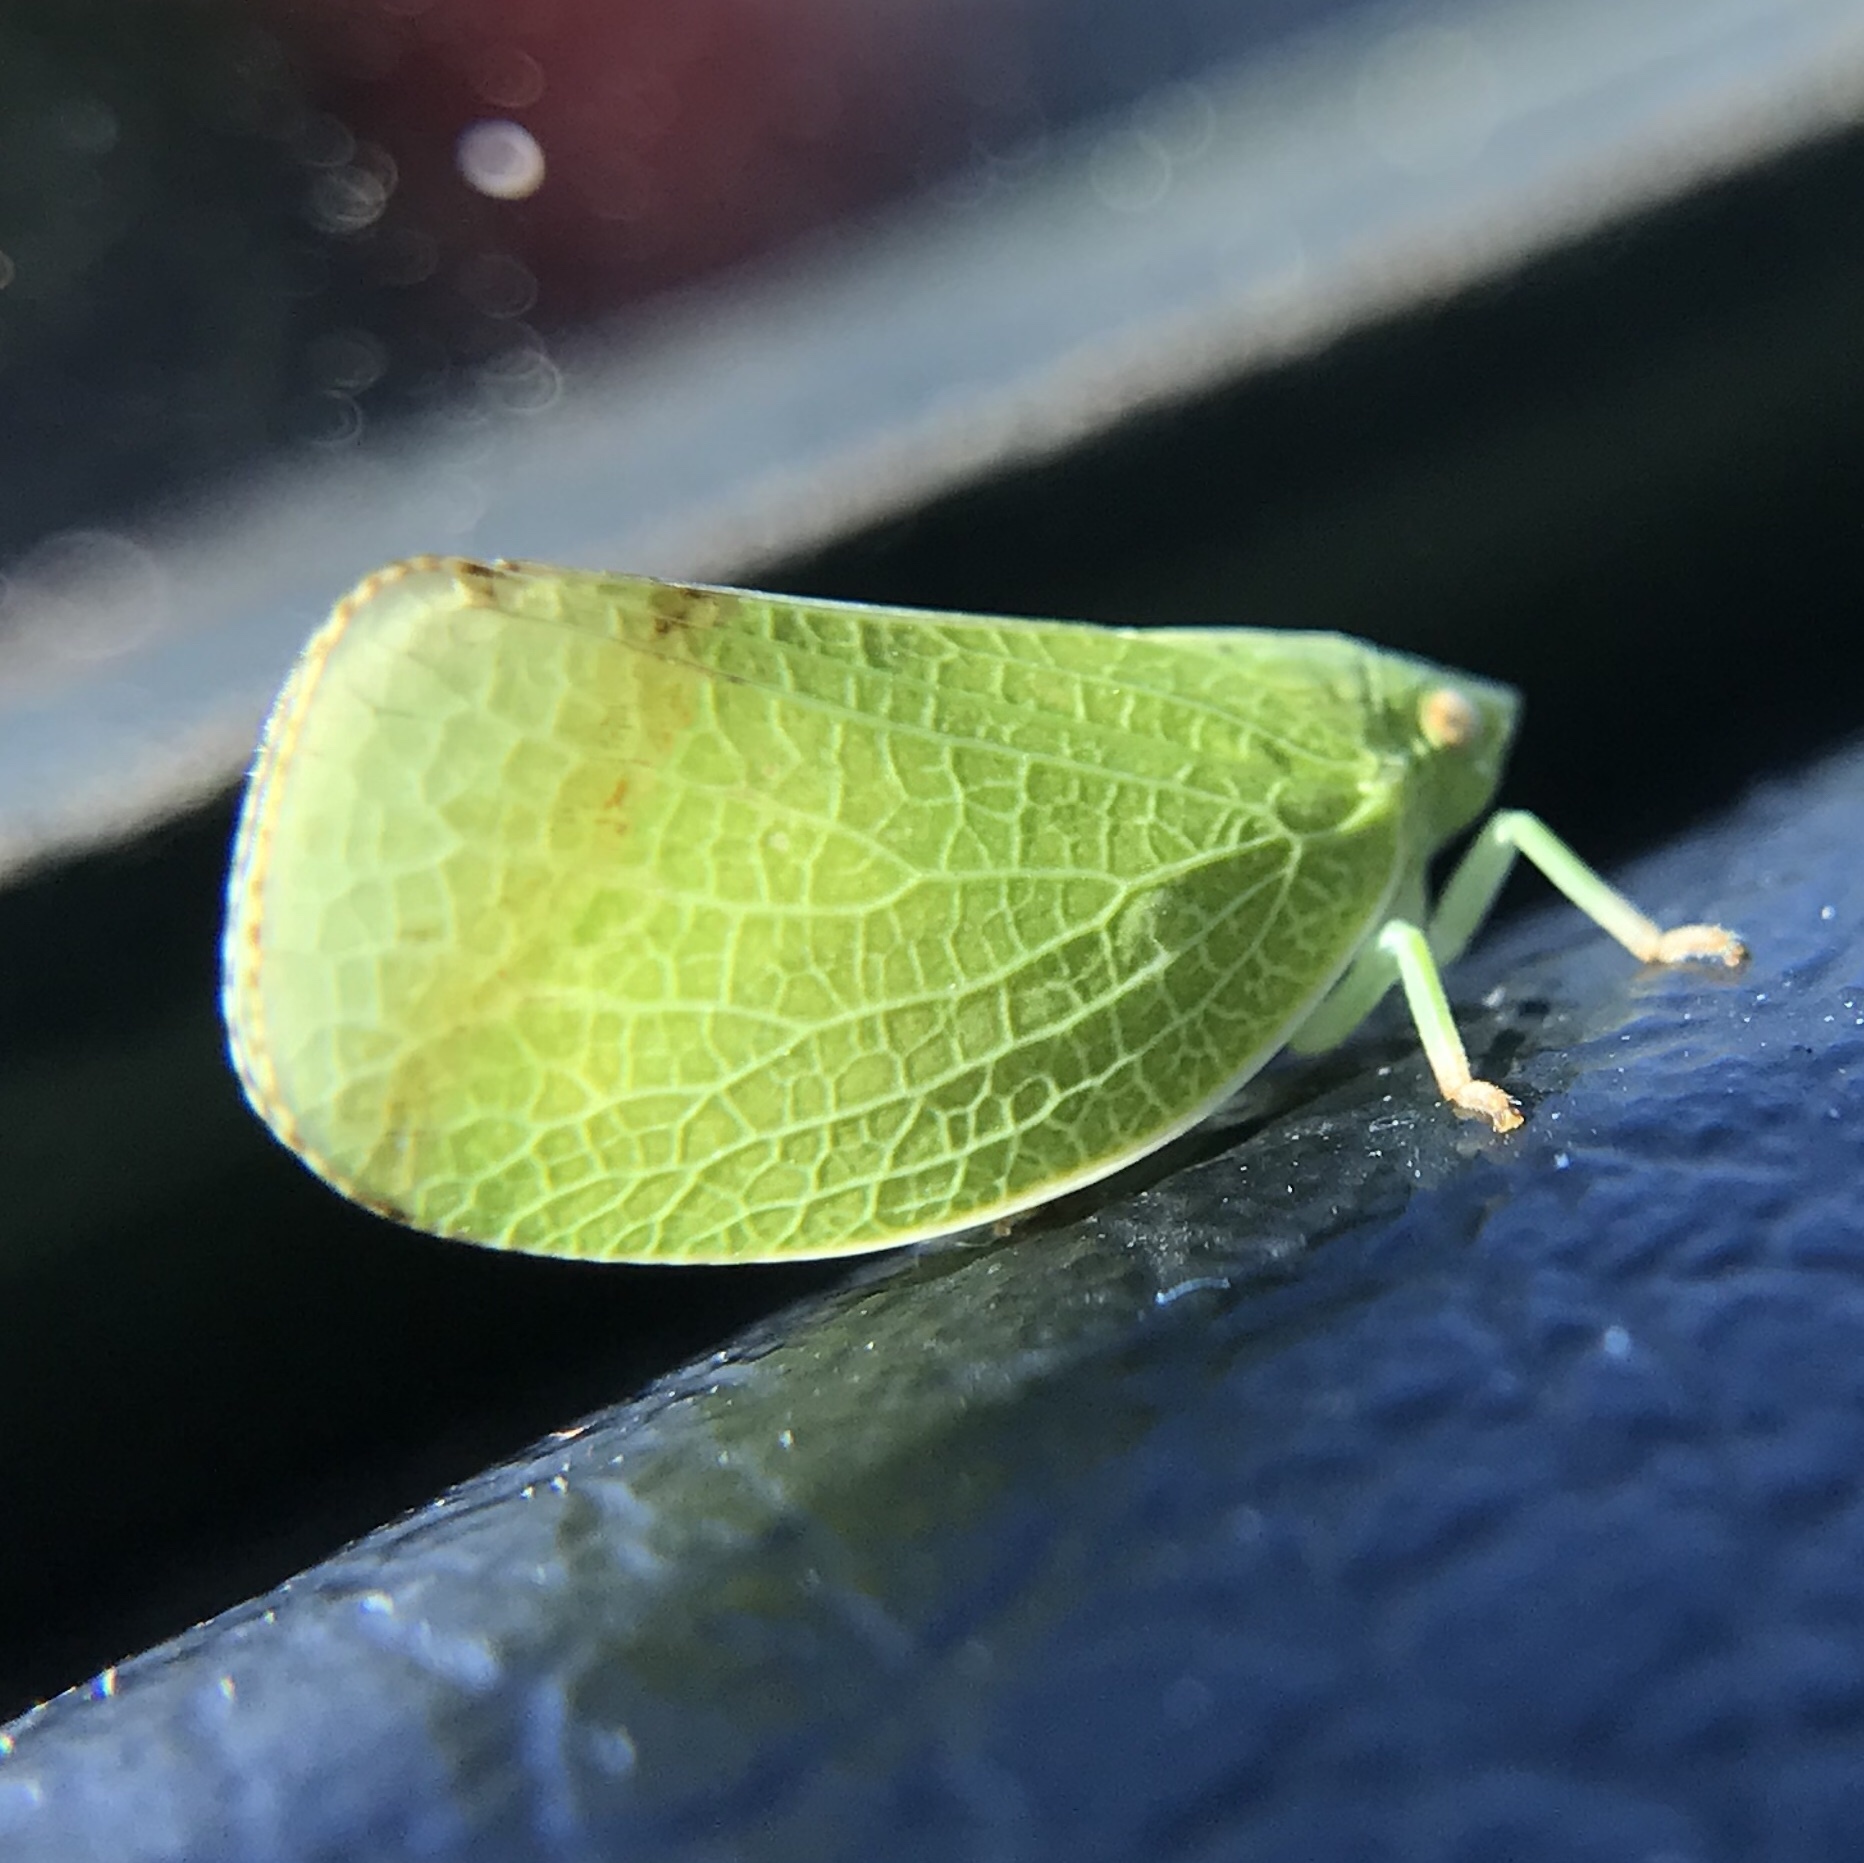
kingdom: Animalia
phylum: Arthropoda
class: Insecta
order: Hemiptera
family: Acanaloniidae
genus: Acanalonia
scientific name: Acanalonia conica
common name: Green cone-headed planthopper
